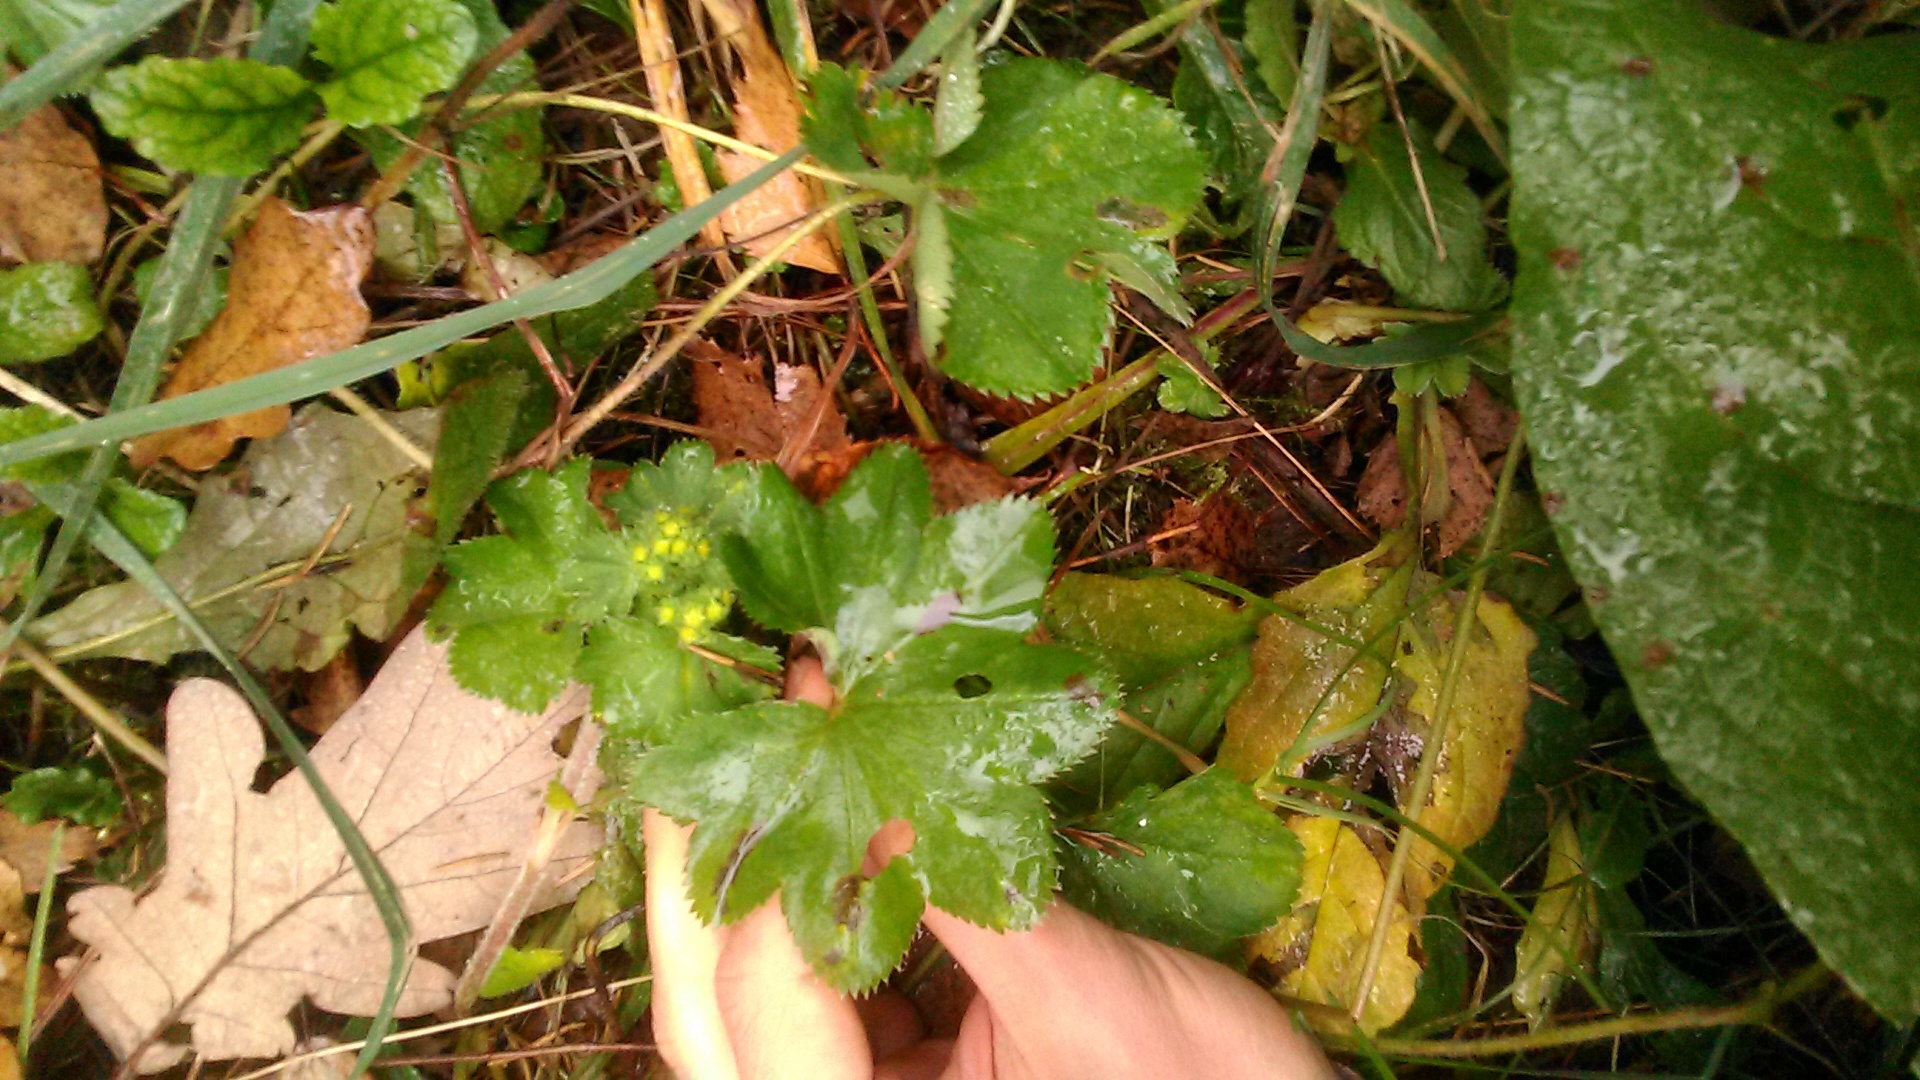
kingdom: Plantae
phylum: Tracheophyta
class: Magnoliopsida
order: Rosales
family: Rosaceae
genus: Alchemilla
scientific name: Alchemilla
